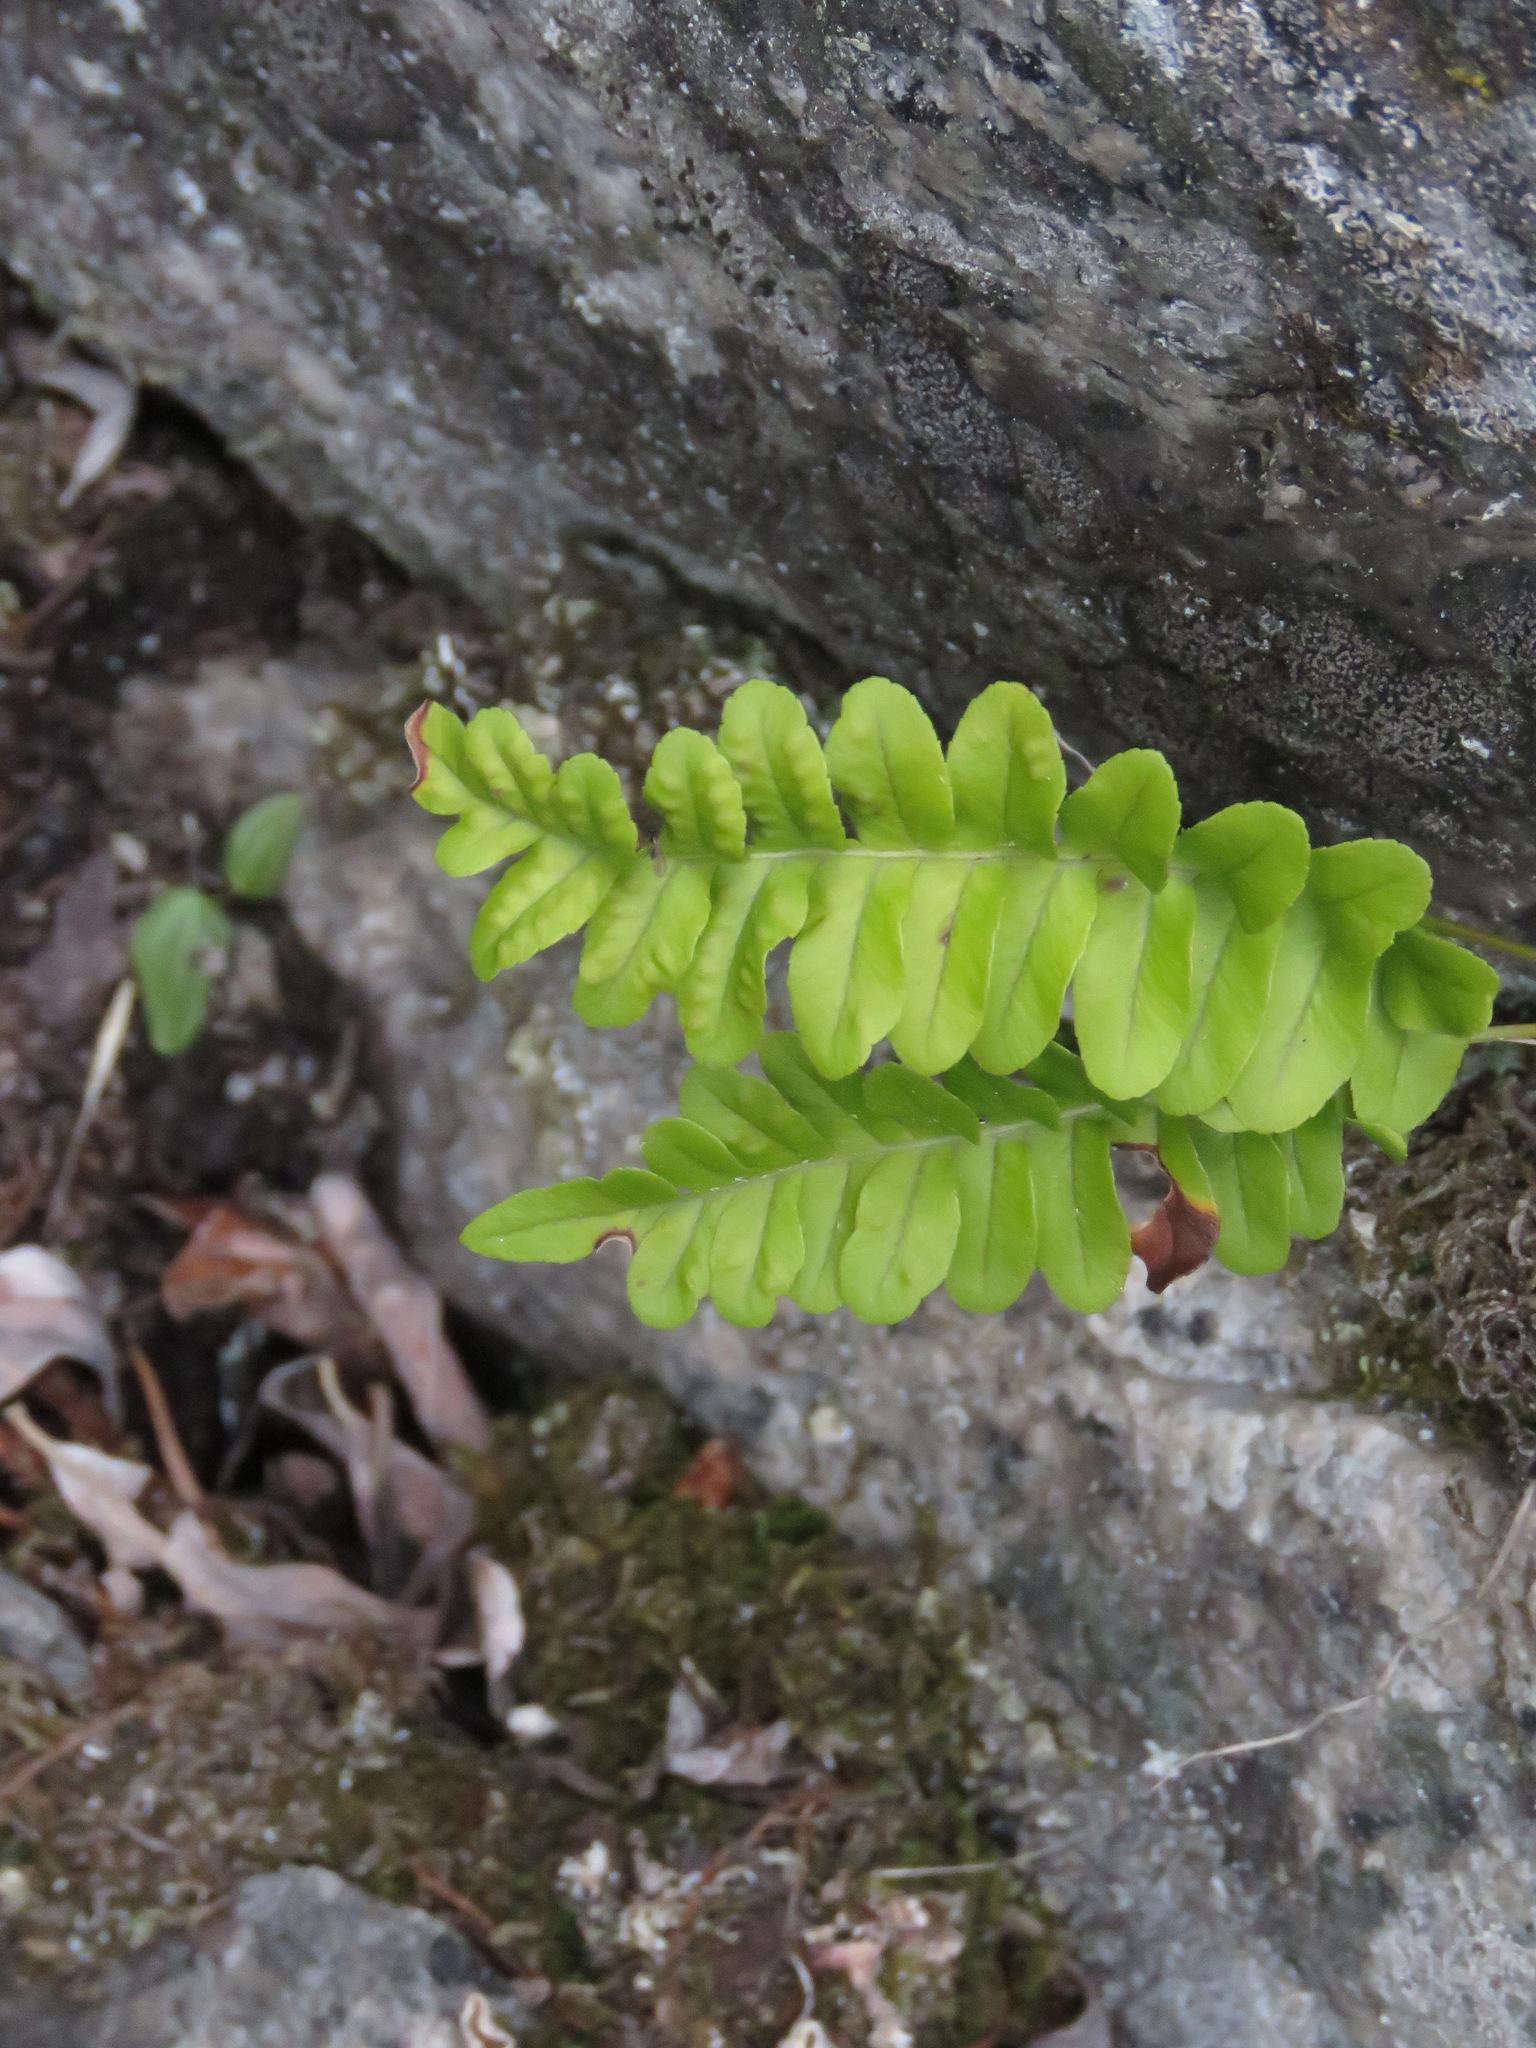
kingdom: Plantae
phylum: Tracheophyta
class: Polypodiopsida
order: Polypodiales
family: Polypodiaceae
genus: Polypodium
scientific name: Polypodium hesperium
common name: Western polypody
